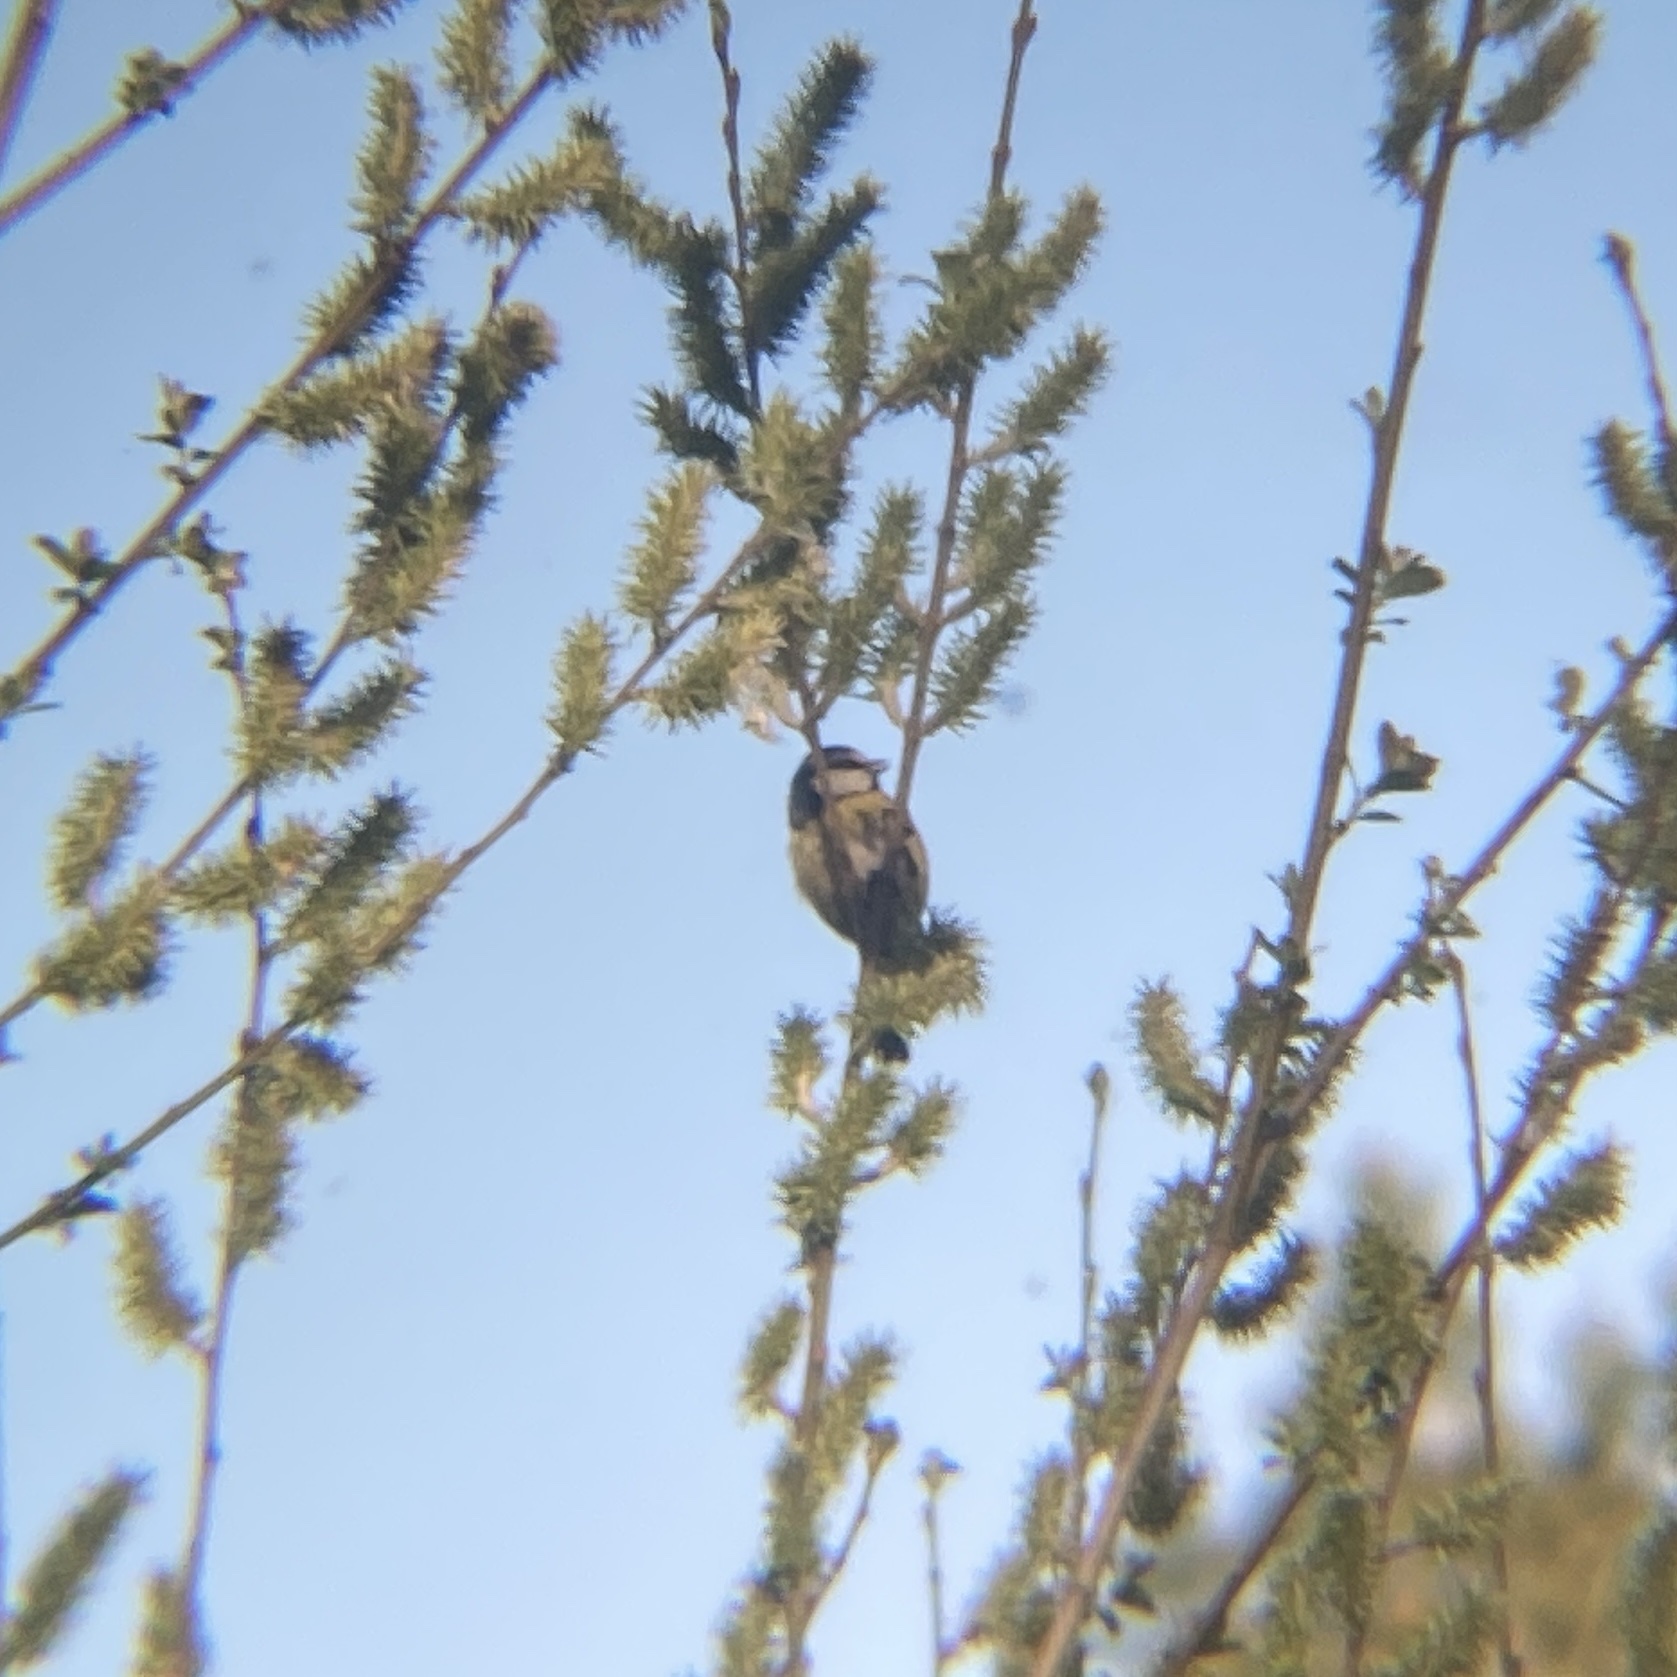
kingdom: Animalia
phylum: Chordata
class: Aves
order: Passeriformes
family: Paridae
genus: Cyanistes
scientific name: Cyanistes caeruleus
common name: Eurasian blue tit
